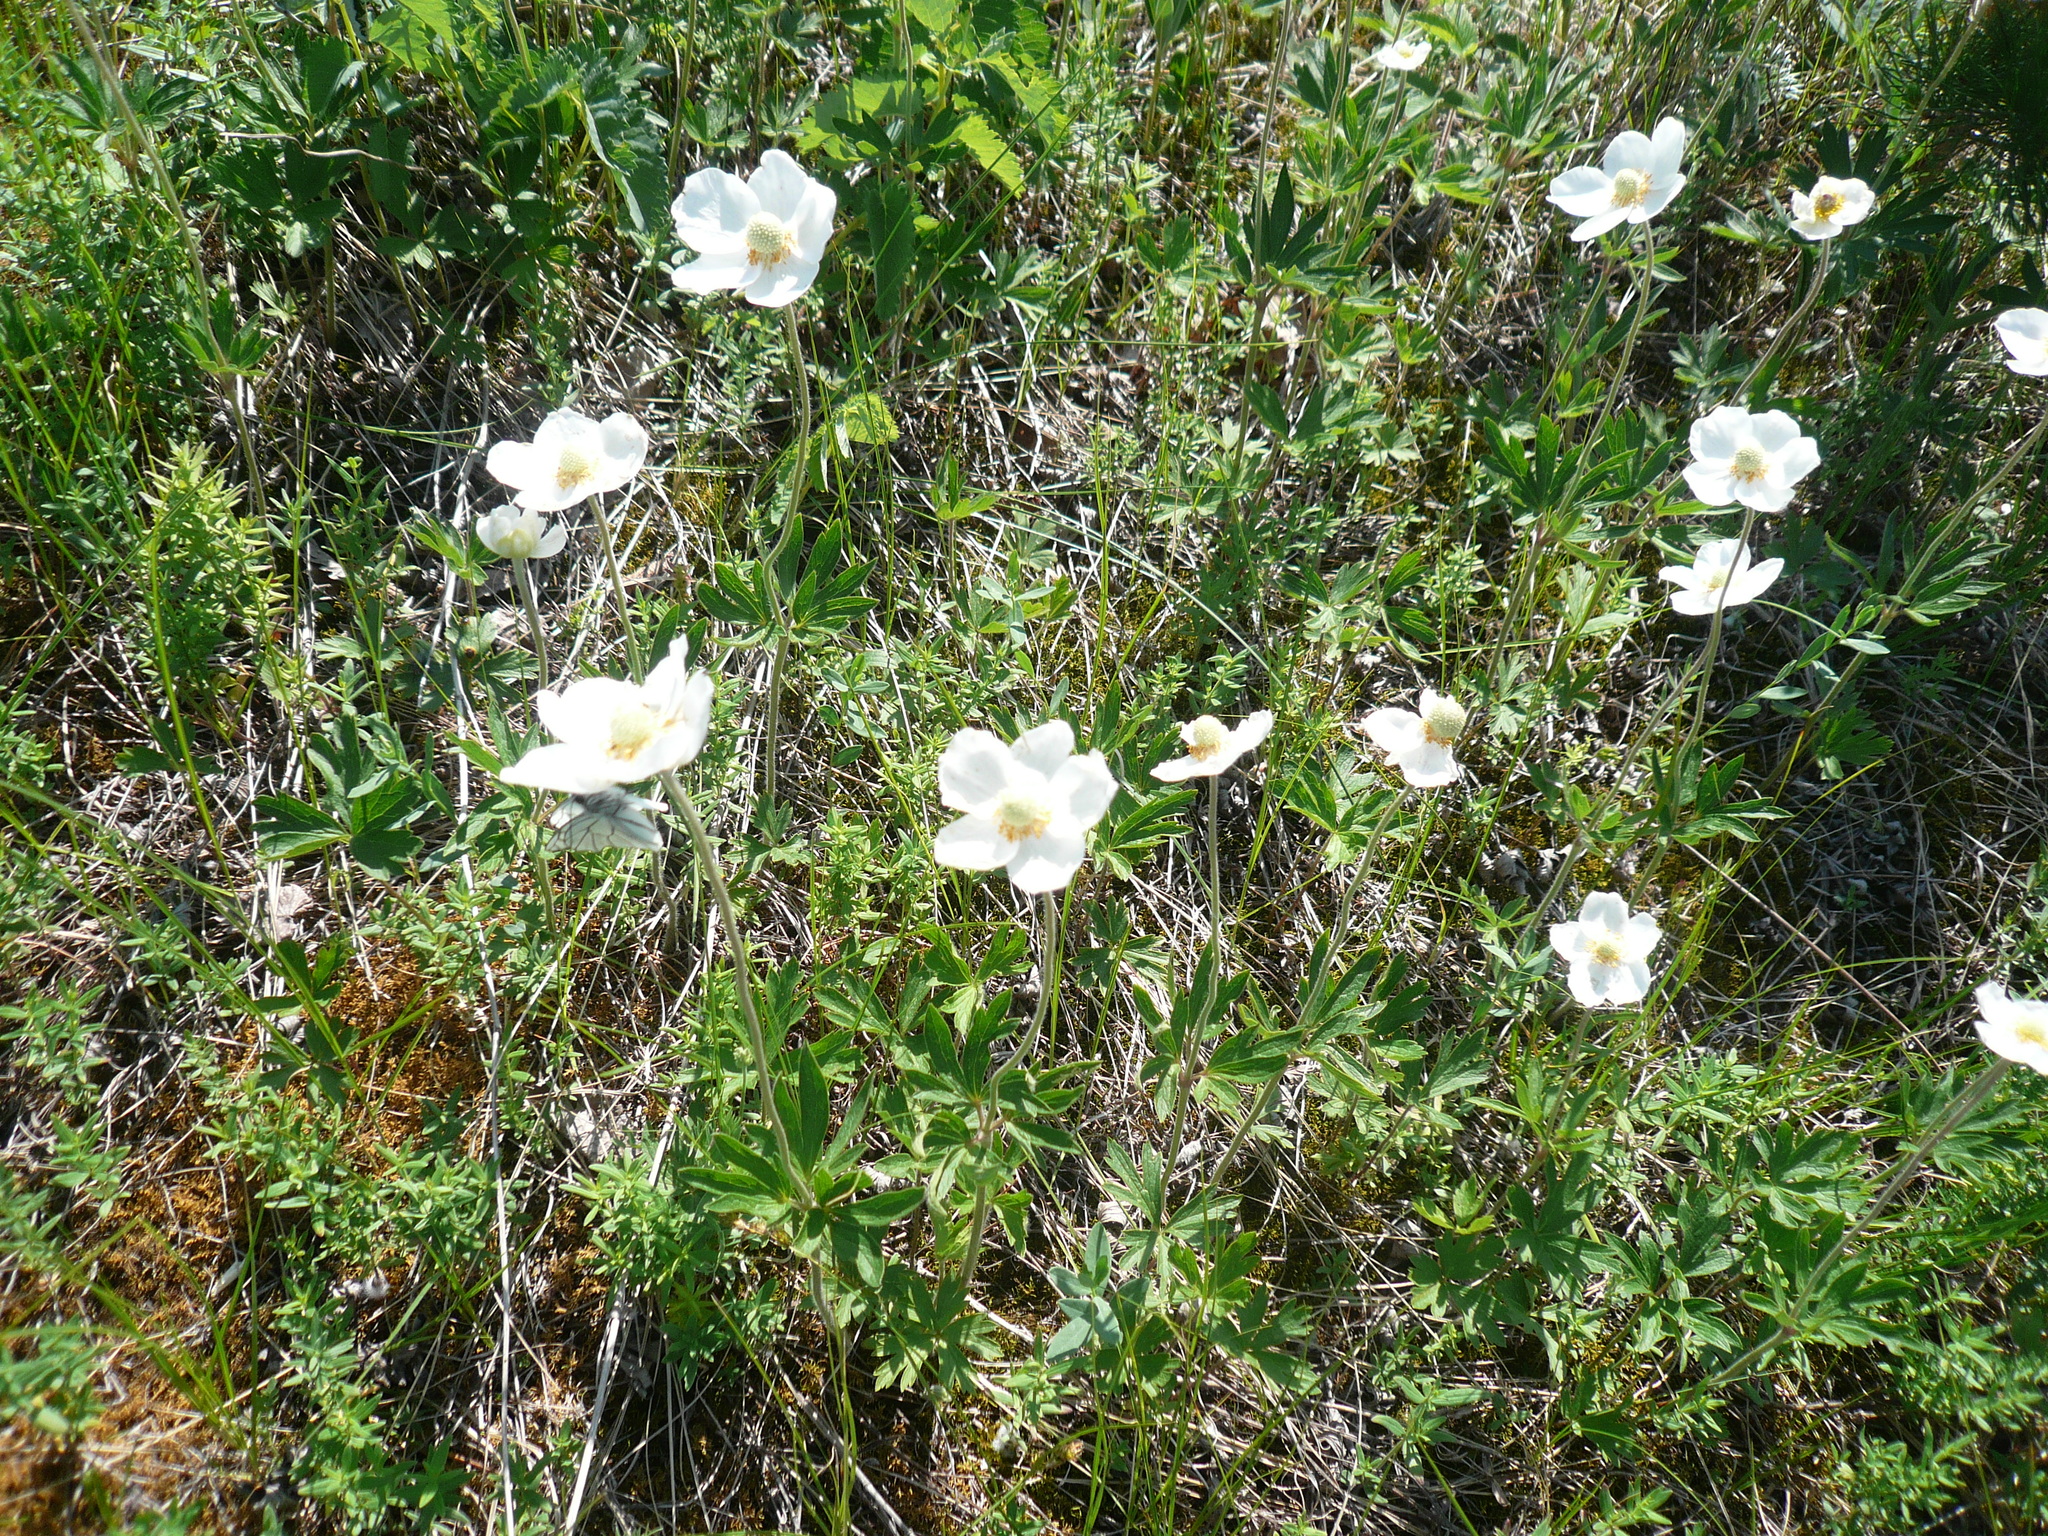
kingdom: Plantae
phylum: Tracheophyta
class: Magnoliopsida
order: Ranunculales
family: Ranunculaceae
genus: Anemone
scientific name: Anemone sylvestris
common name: Snowdrop anemone
